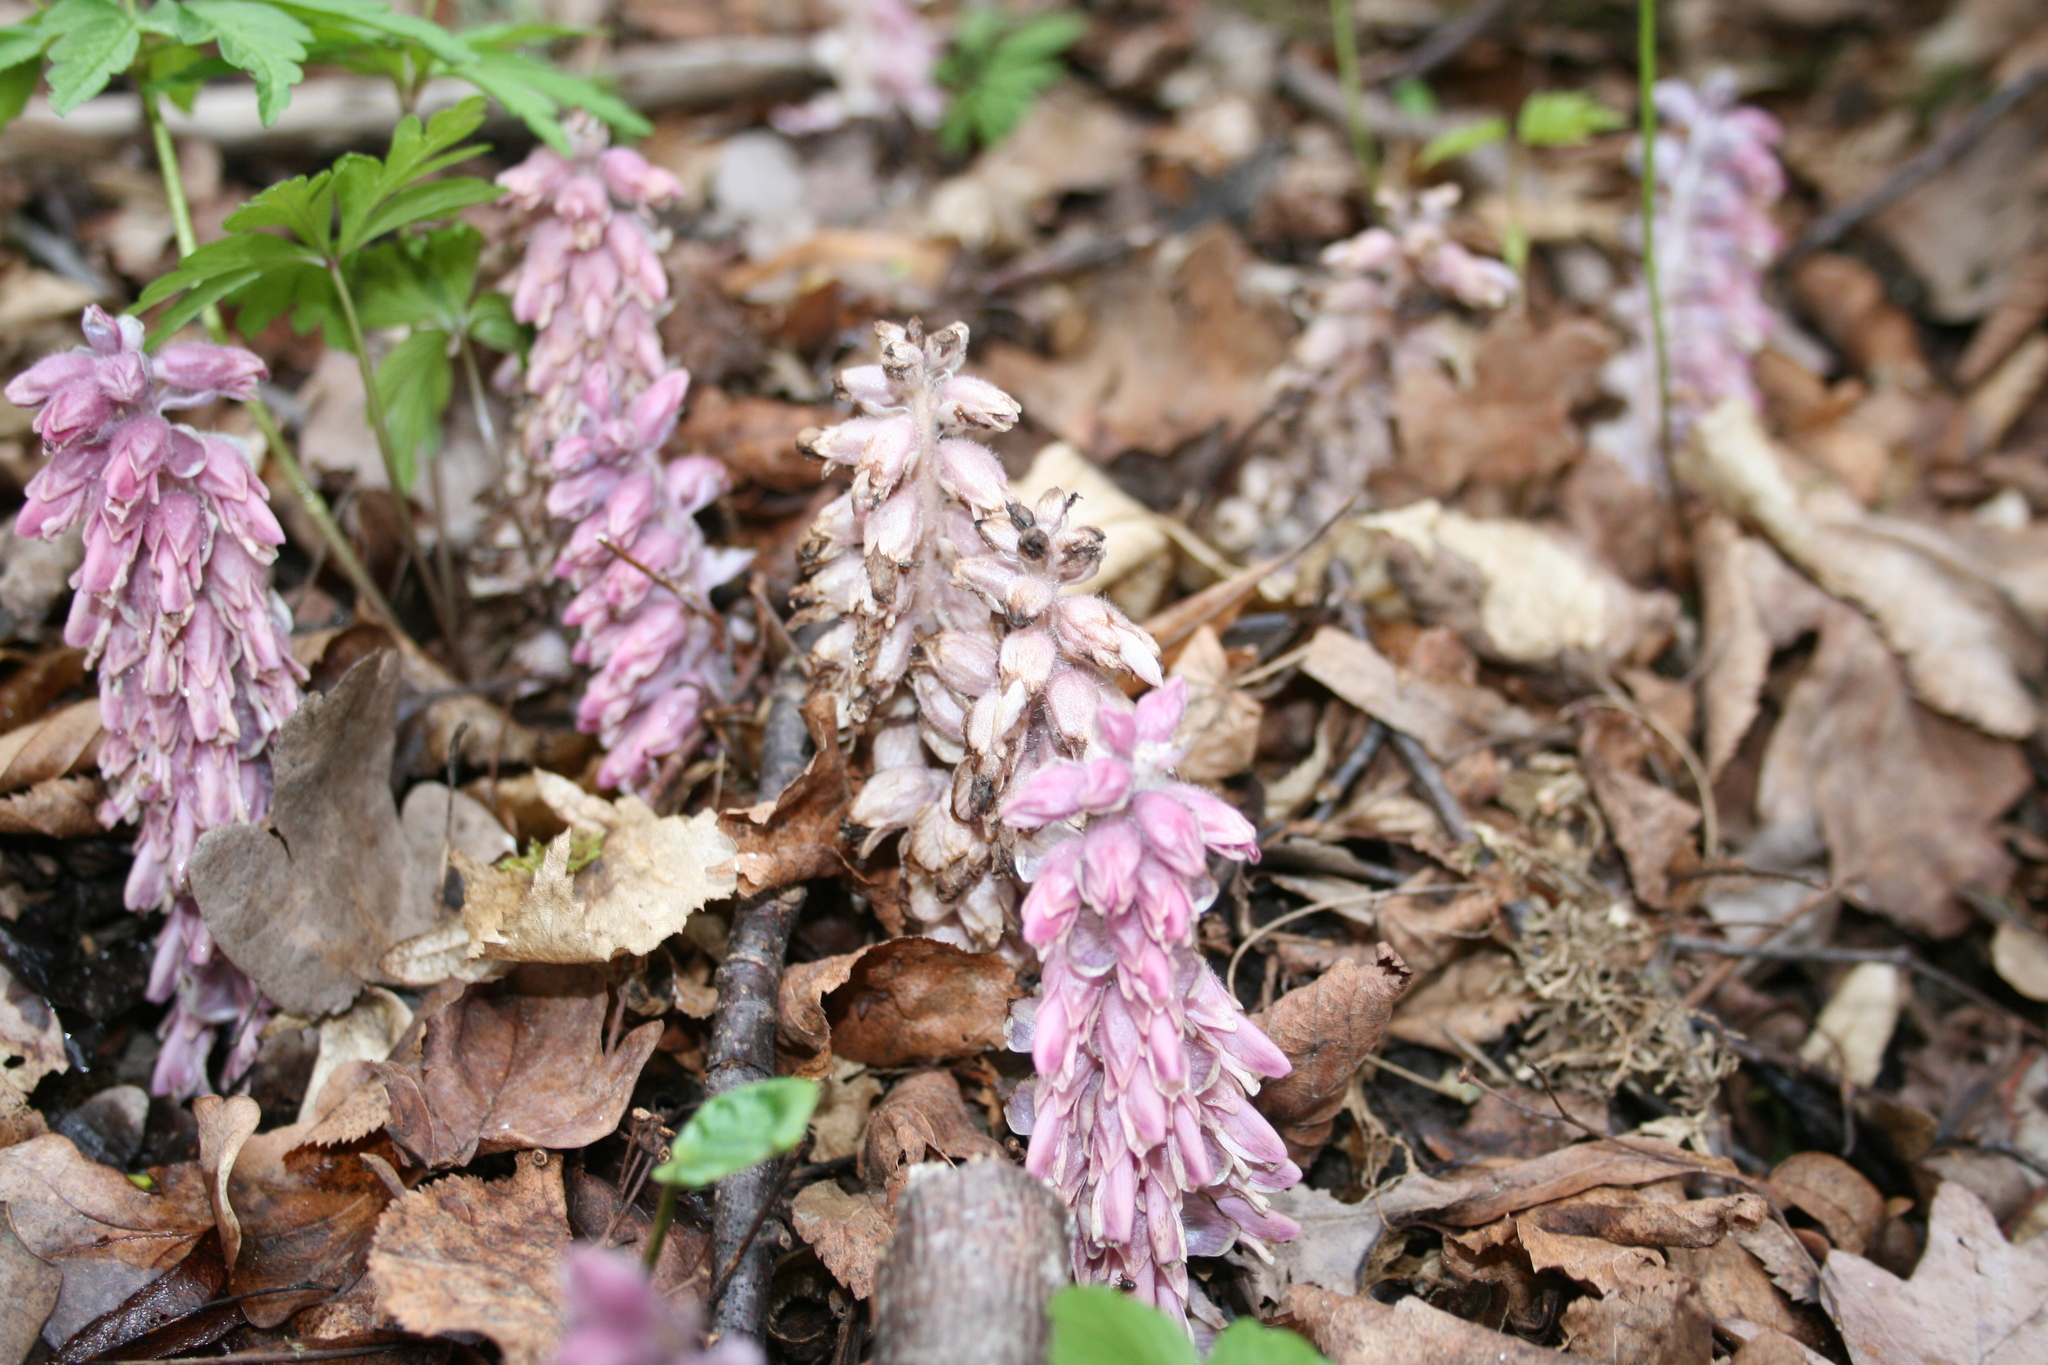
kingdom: Plantae
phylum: Tracheophyta
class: Magnoliopsida
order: Lamiales
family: Orobanchaceae
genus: Lathraea
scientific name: Lathraea squamaria
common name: Toothwort
